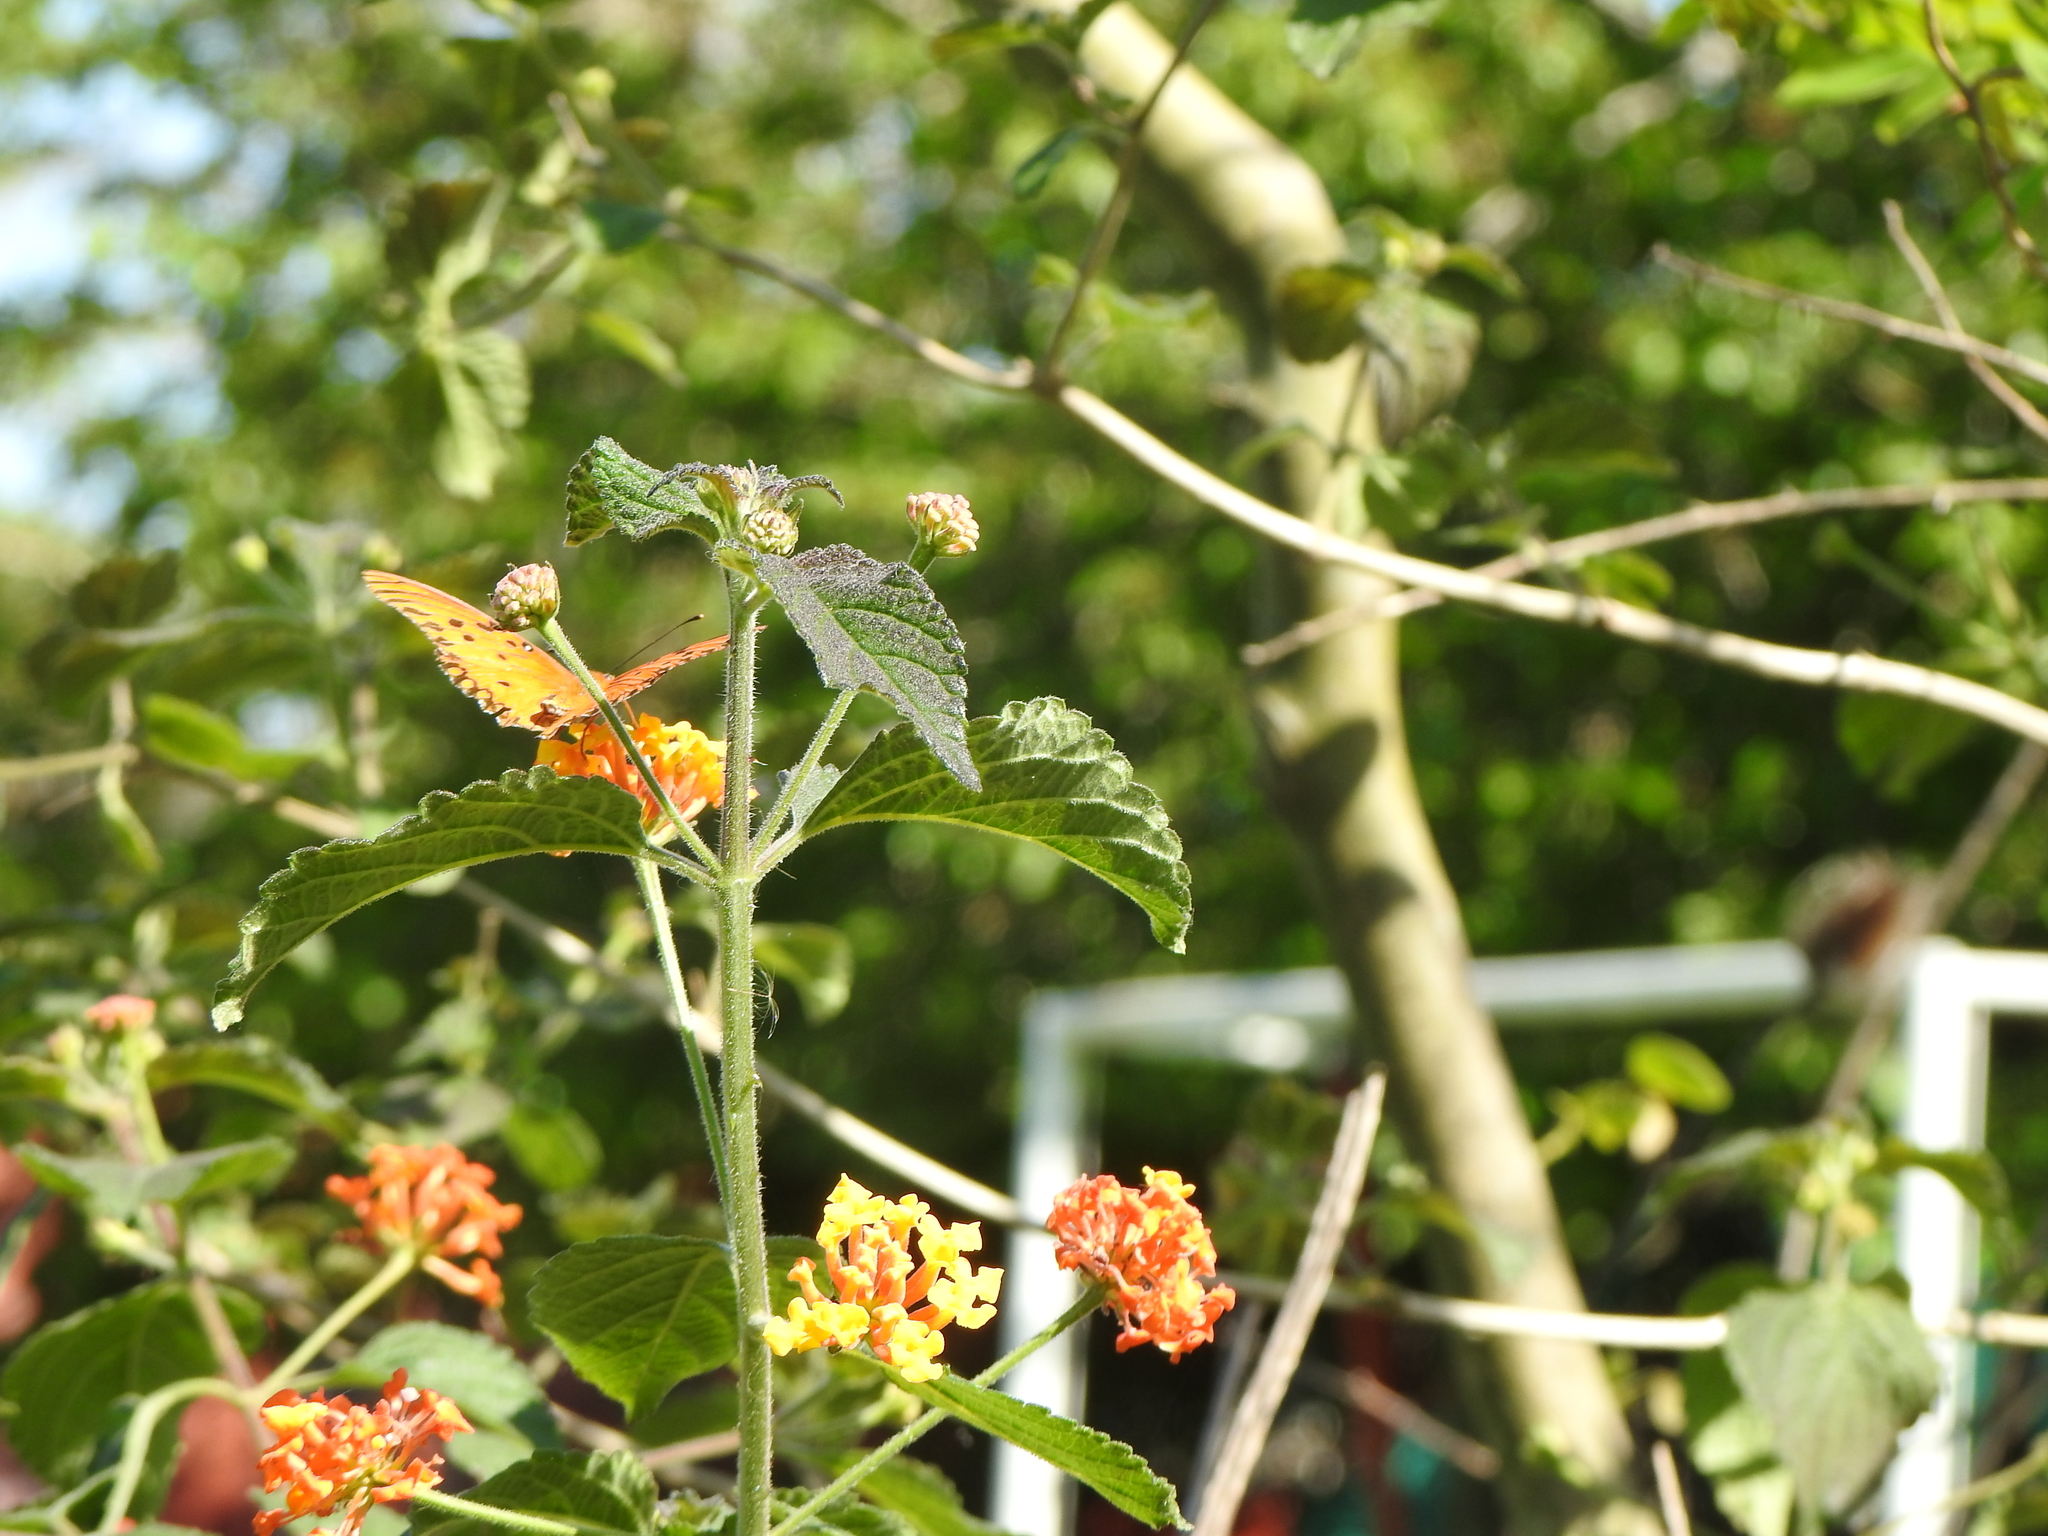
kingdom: Animalia
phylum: Arthropoda
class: Insecta
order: Lepidoptera
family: Nymphalidae
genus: Dione
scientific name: Dione vanillae
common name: Gulf fritillary
